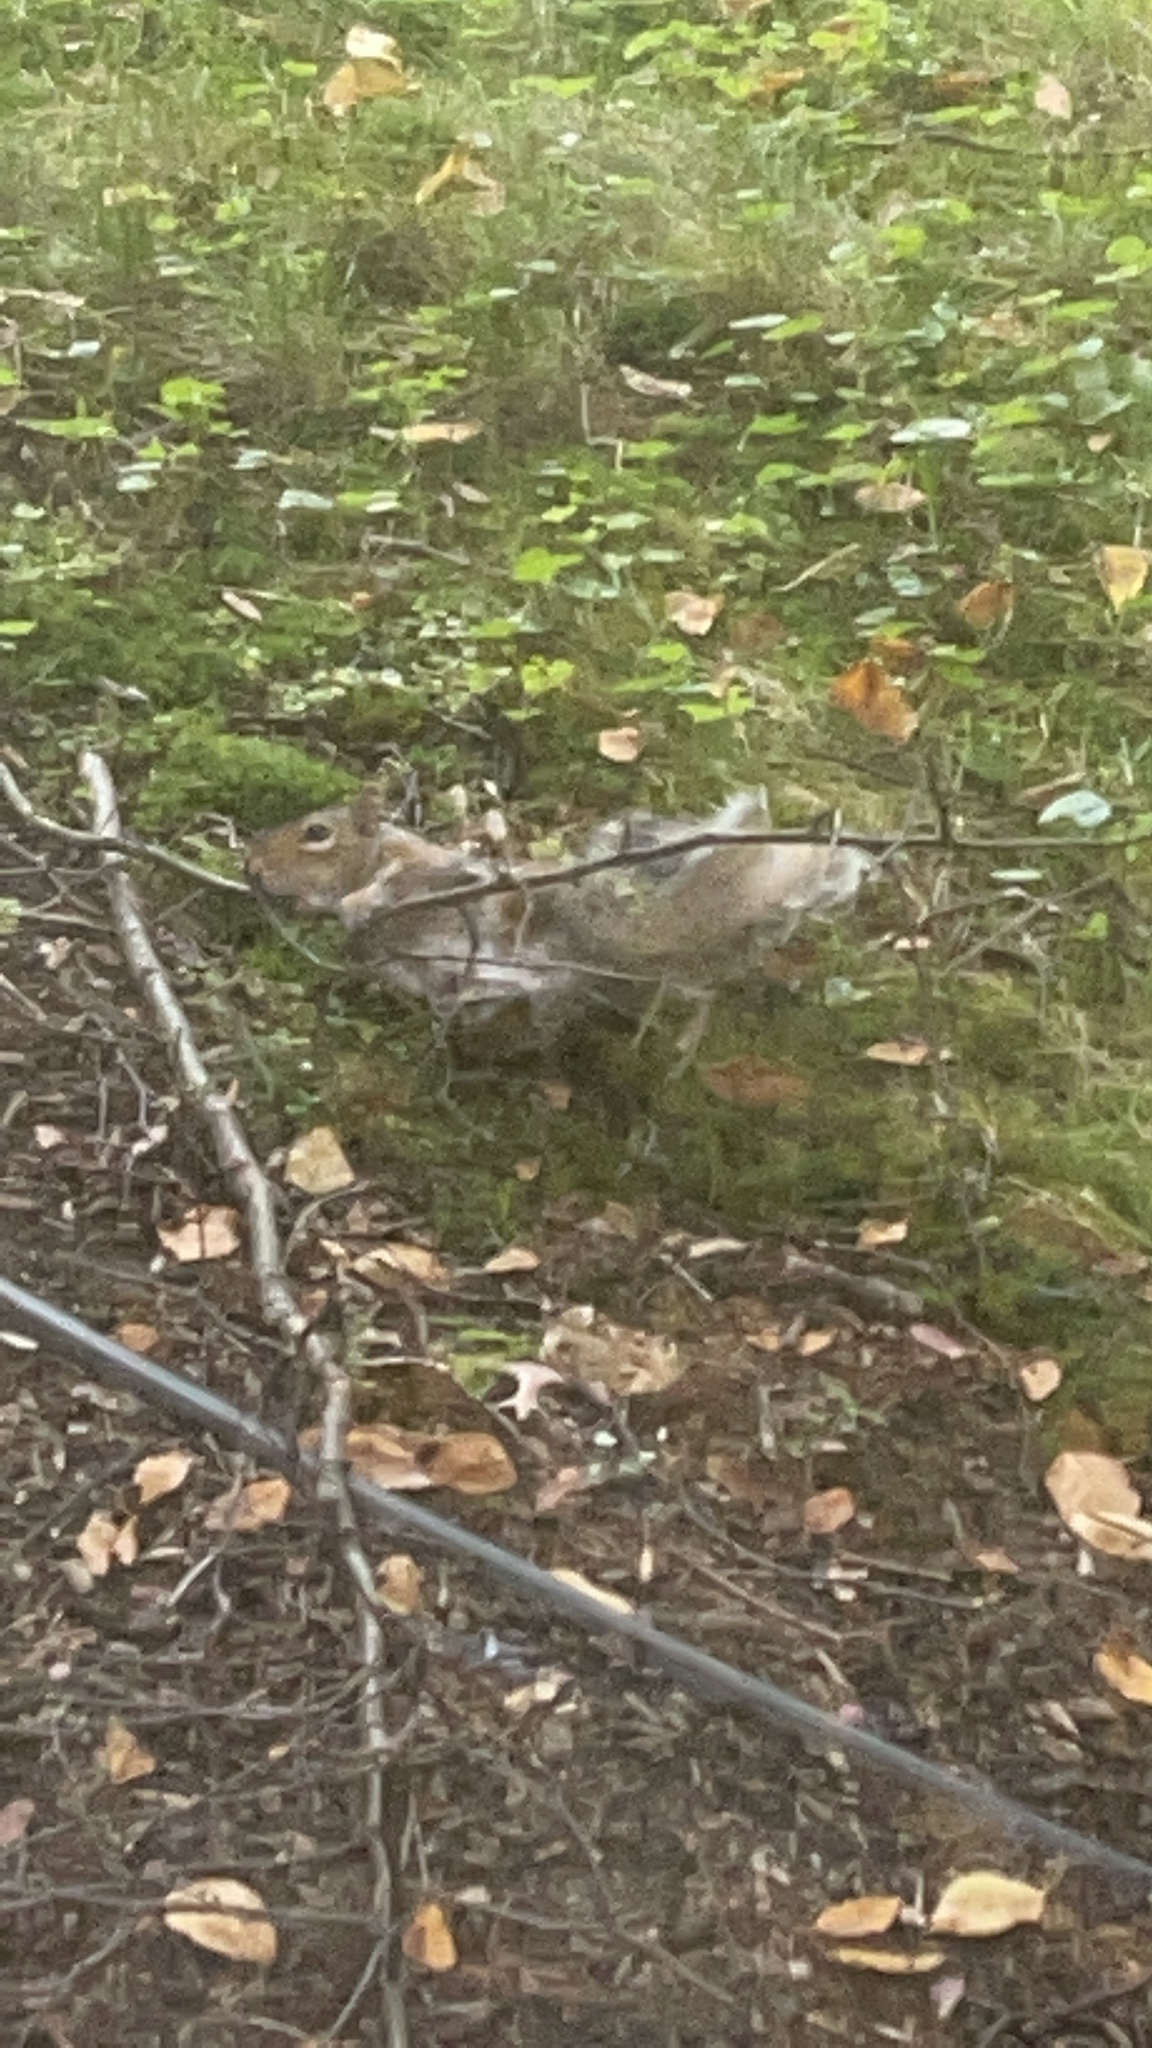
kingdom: Animalia
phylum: Chordata
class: Mammalia
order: Rodentia
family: Sciuridae
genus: Sciurus
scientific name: Sciurus carolinensis
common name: Eastern gray squirrel
